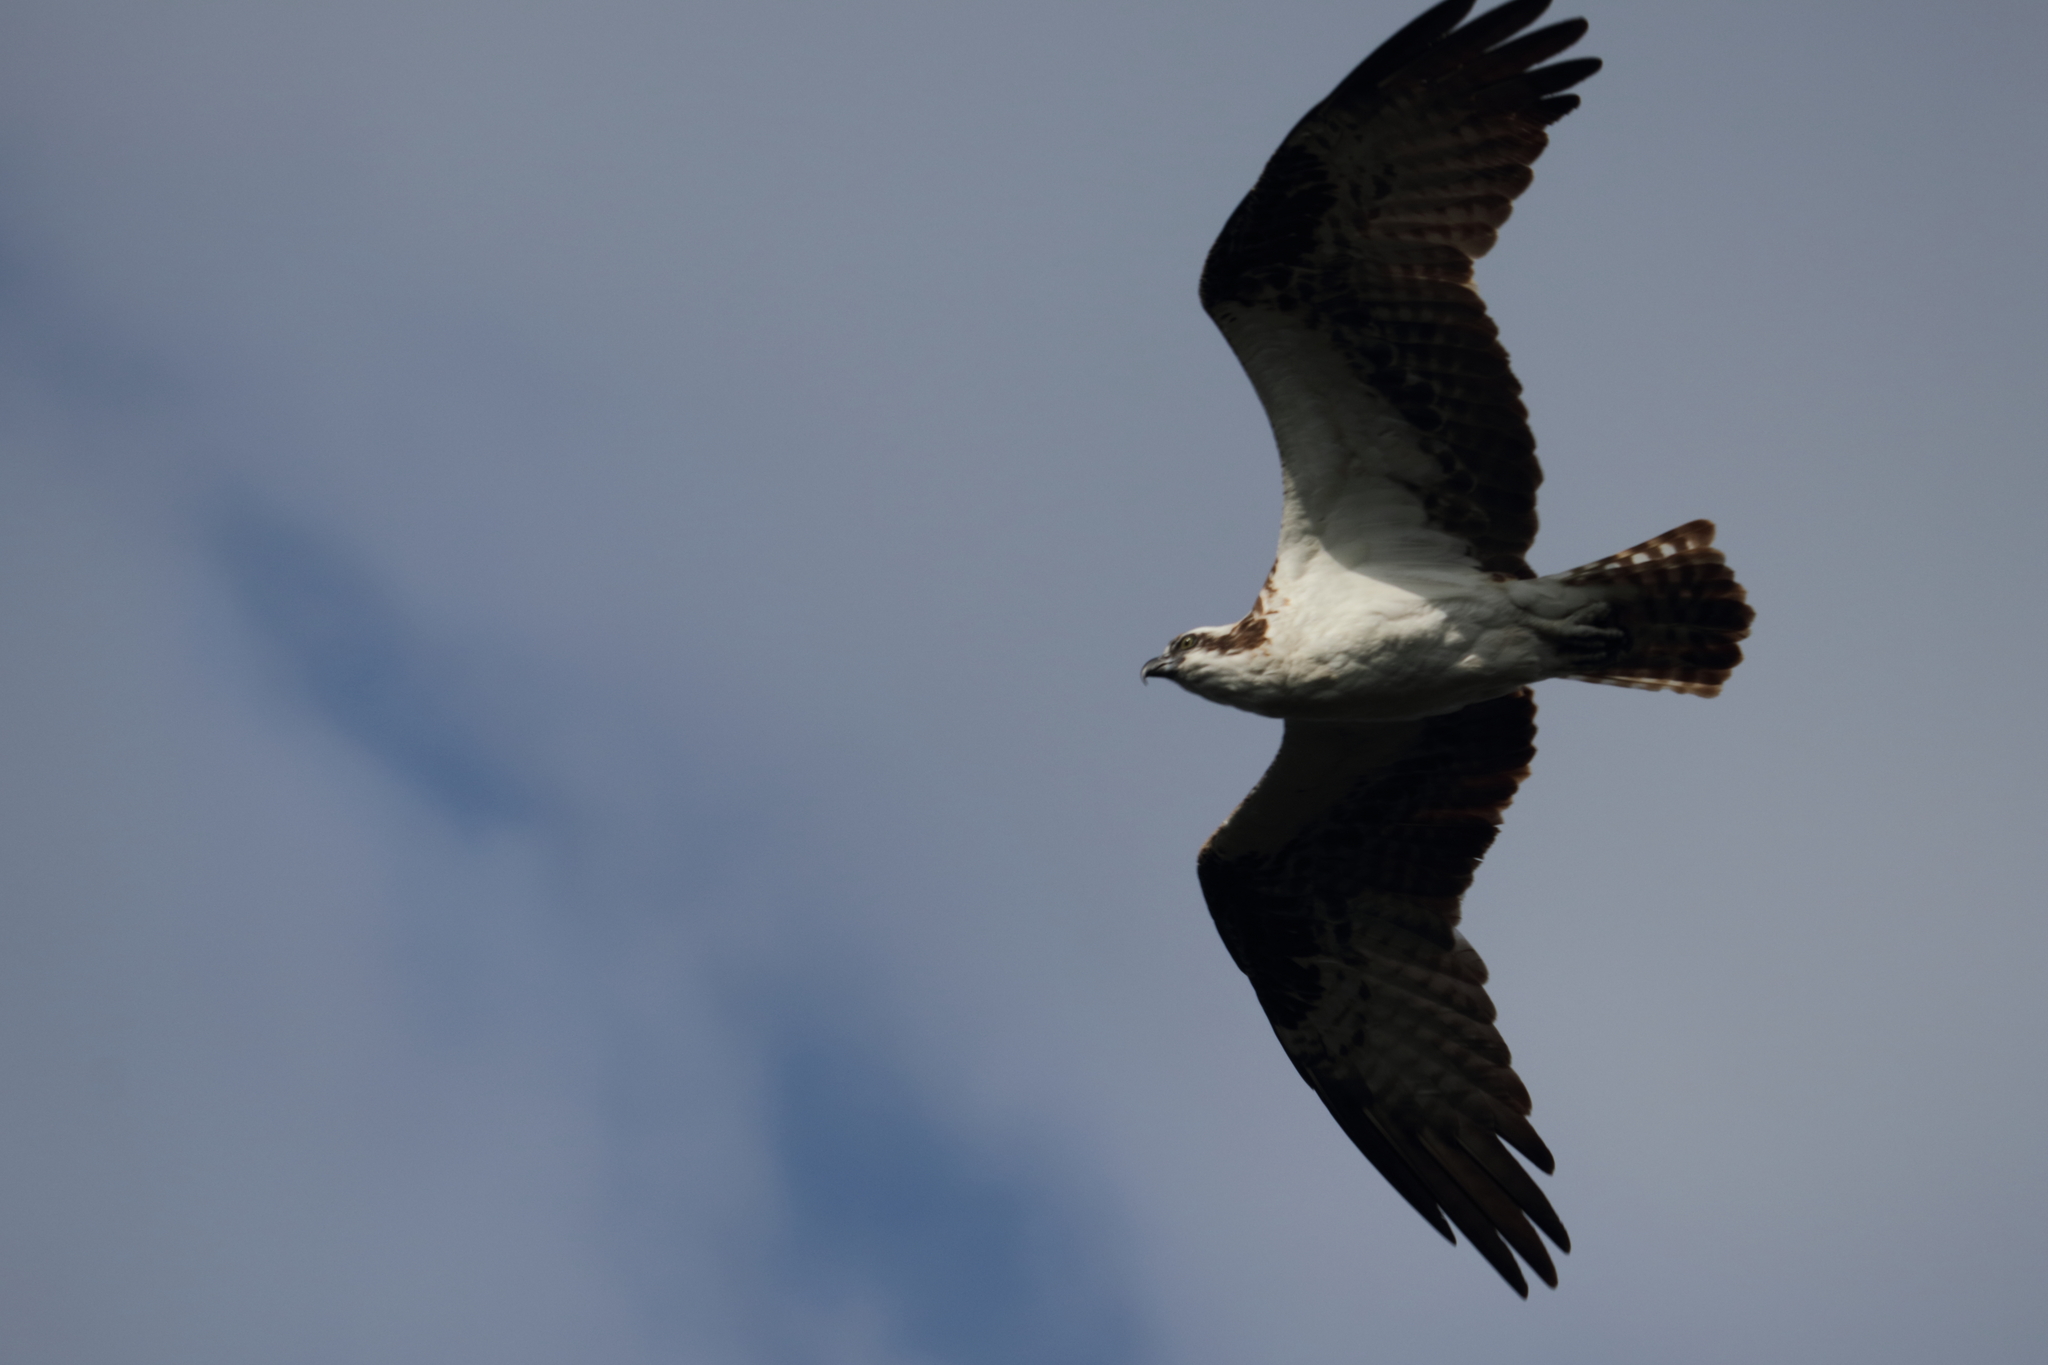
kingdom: Animalia
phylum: Chordata
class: Aves
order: Accipitriformes
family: Pandionidae
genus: Pandion
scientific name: Pandion haliaetus
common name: Osprey
